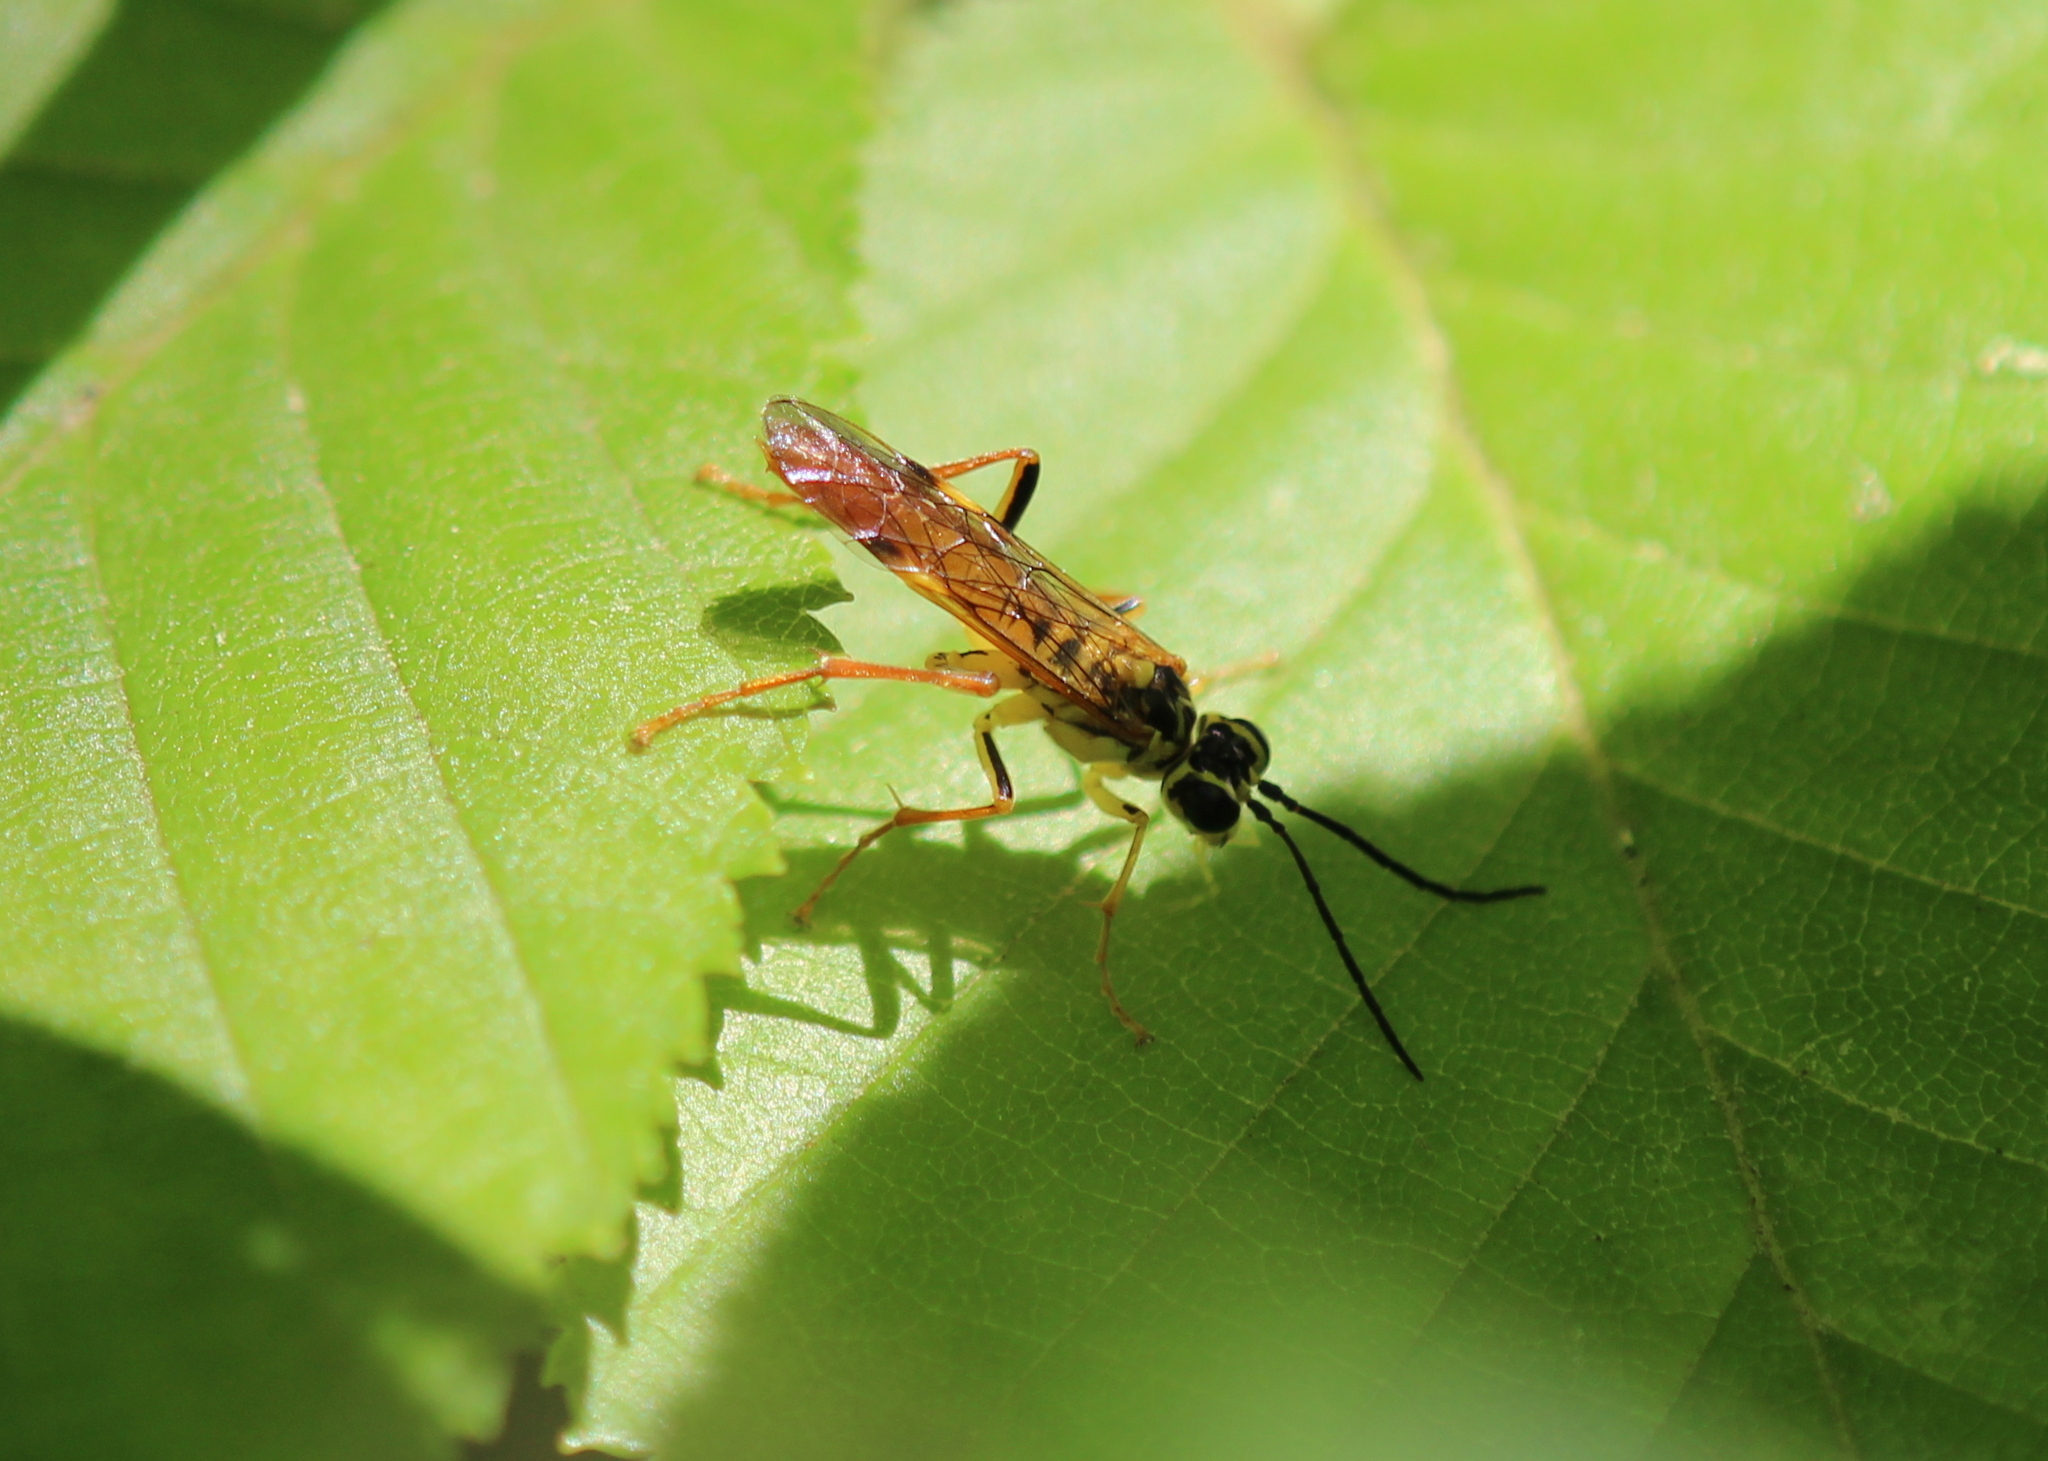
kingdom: Animalia
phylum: Arthropoda
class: Insecta
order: Hymenoptera
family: Tenthredinidae
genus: Tenthredo
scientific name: Tenthredo verticalis
